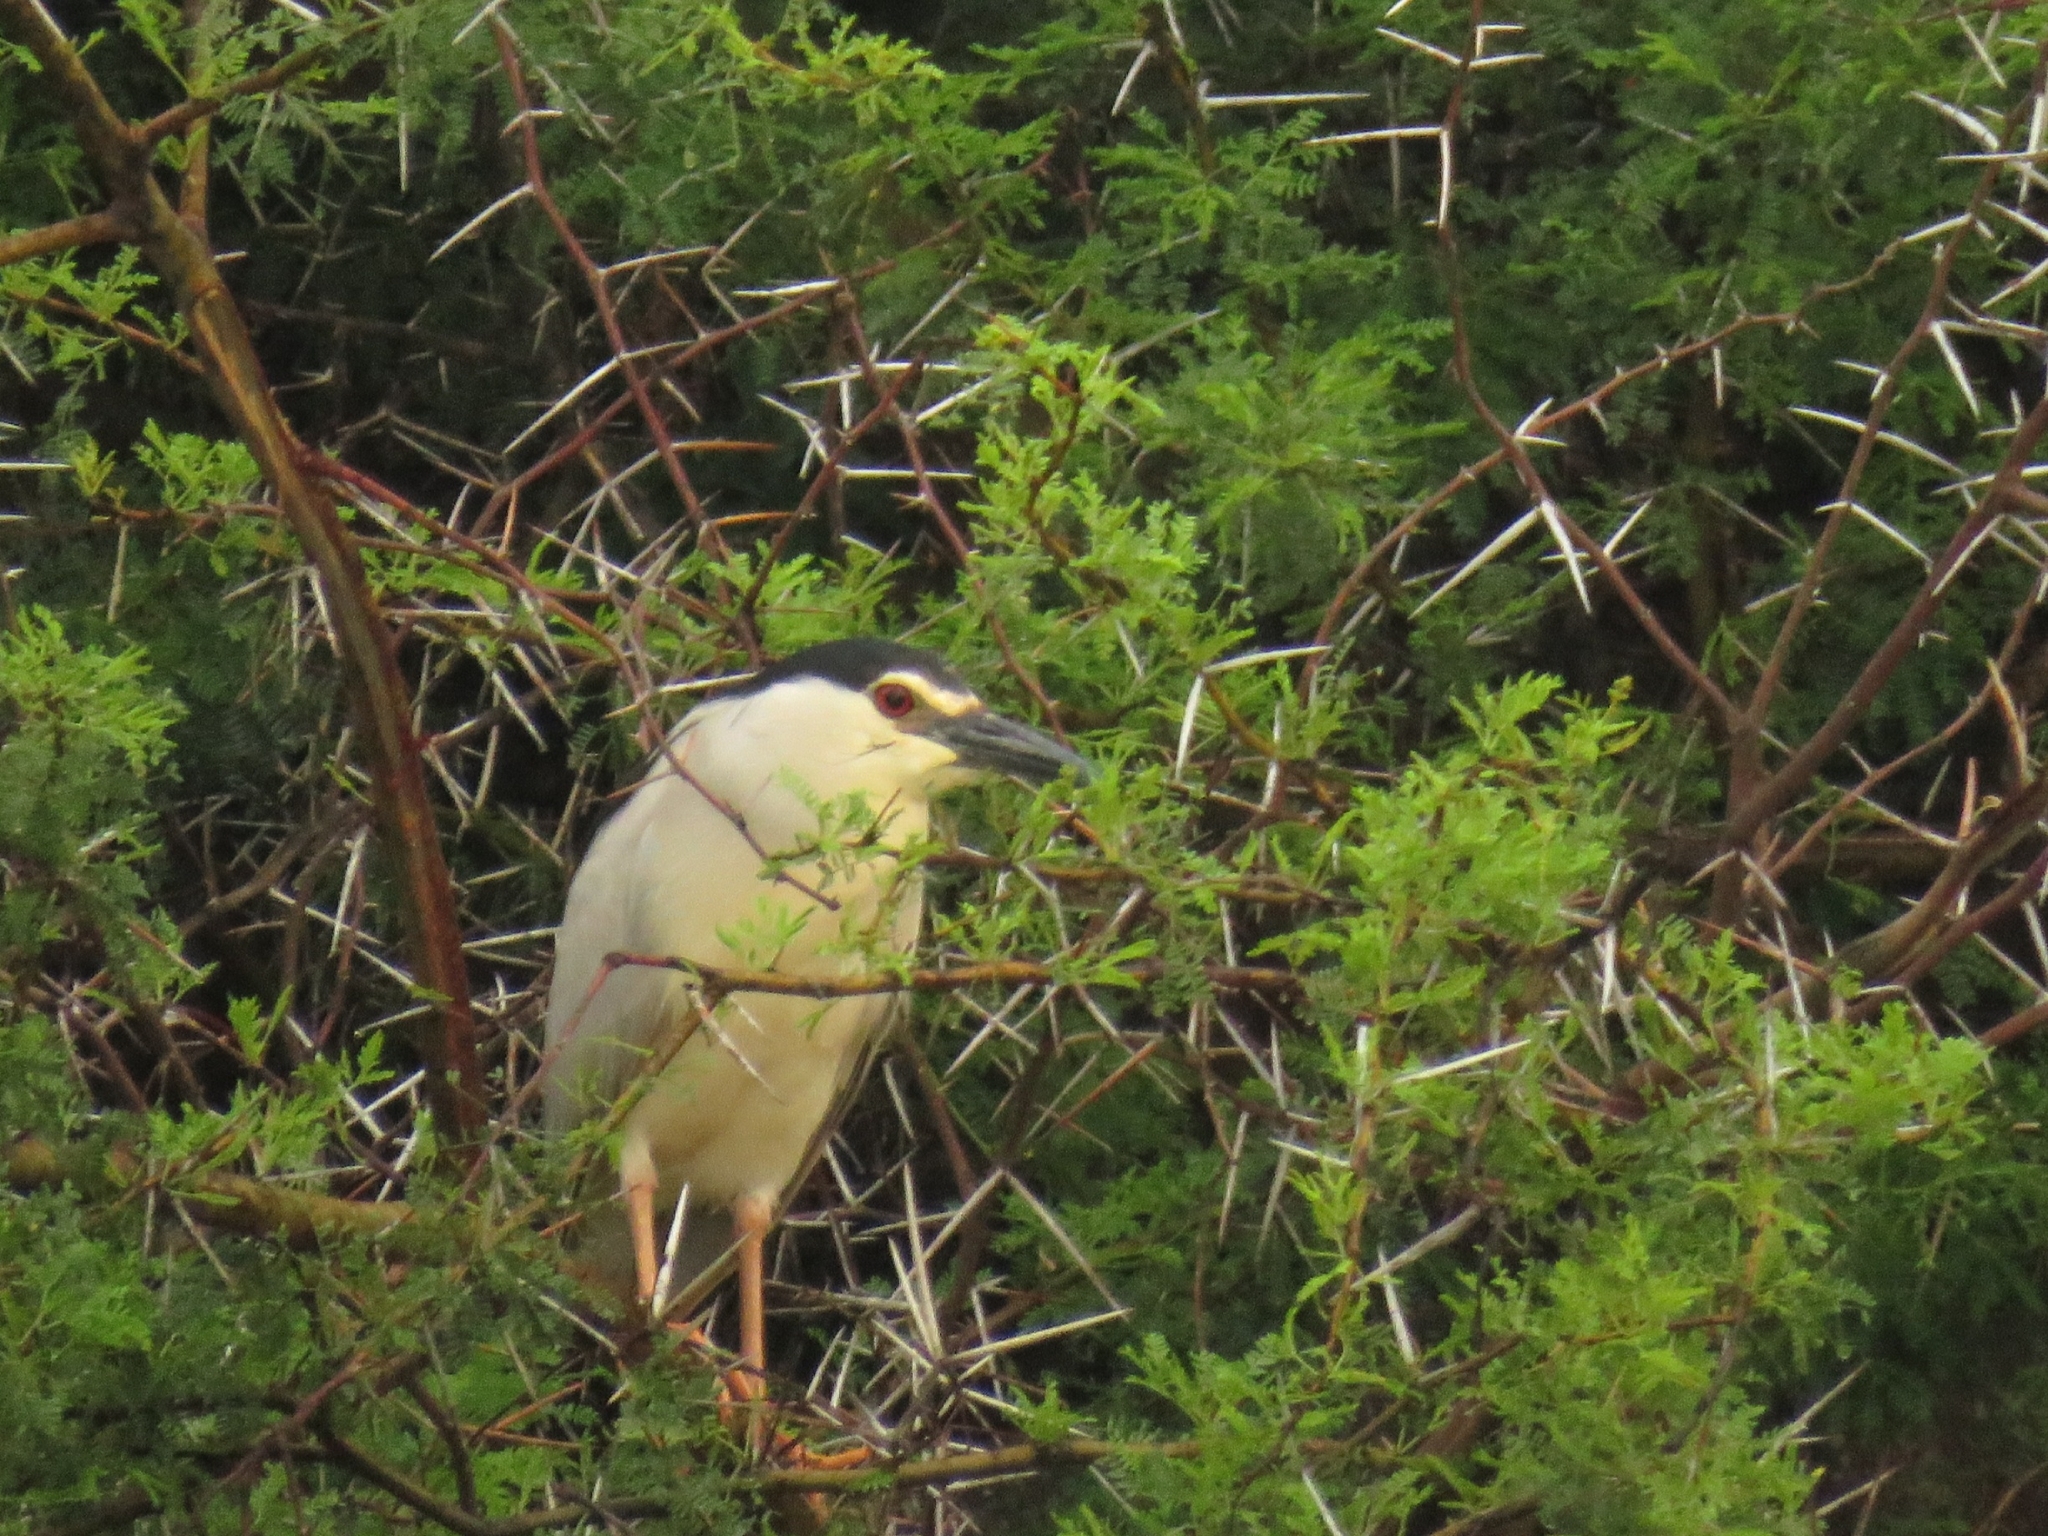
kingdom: Animalia
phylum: Chordata
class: Aves
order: Pelecaniformes
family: Ardeidae
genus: Nycticorax
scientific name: Nycticorax nycticorax
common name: Black-crowned night heron
